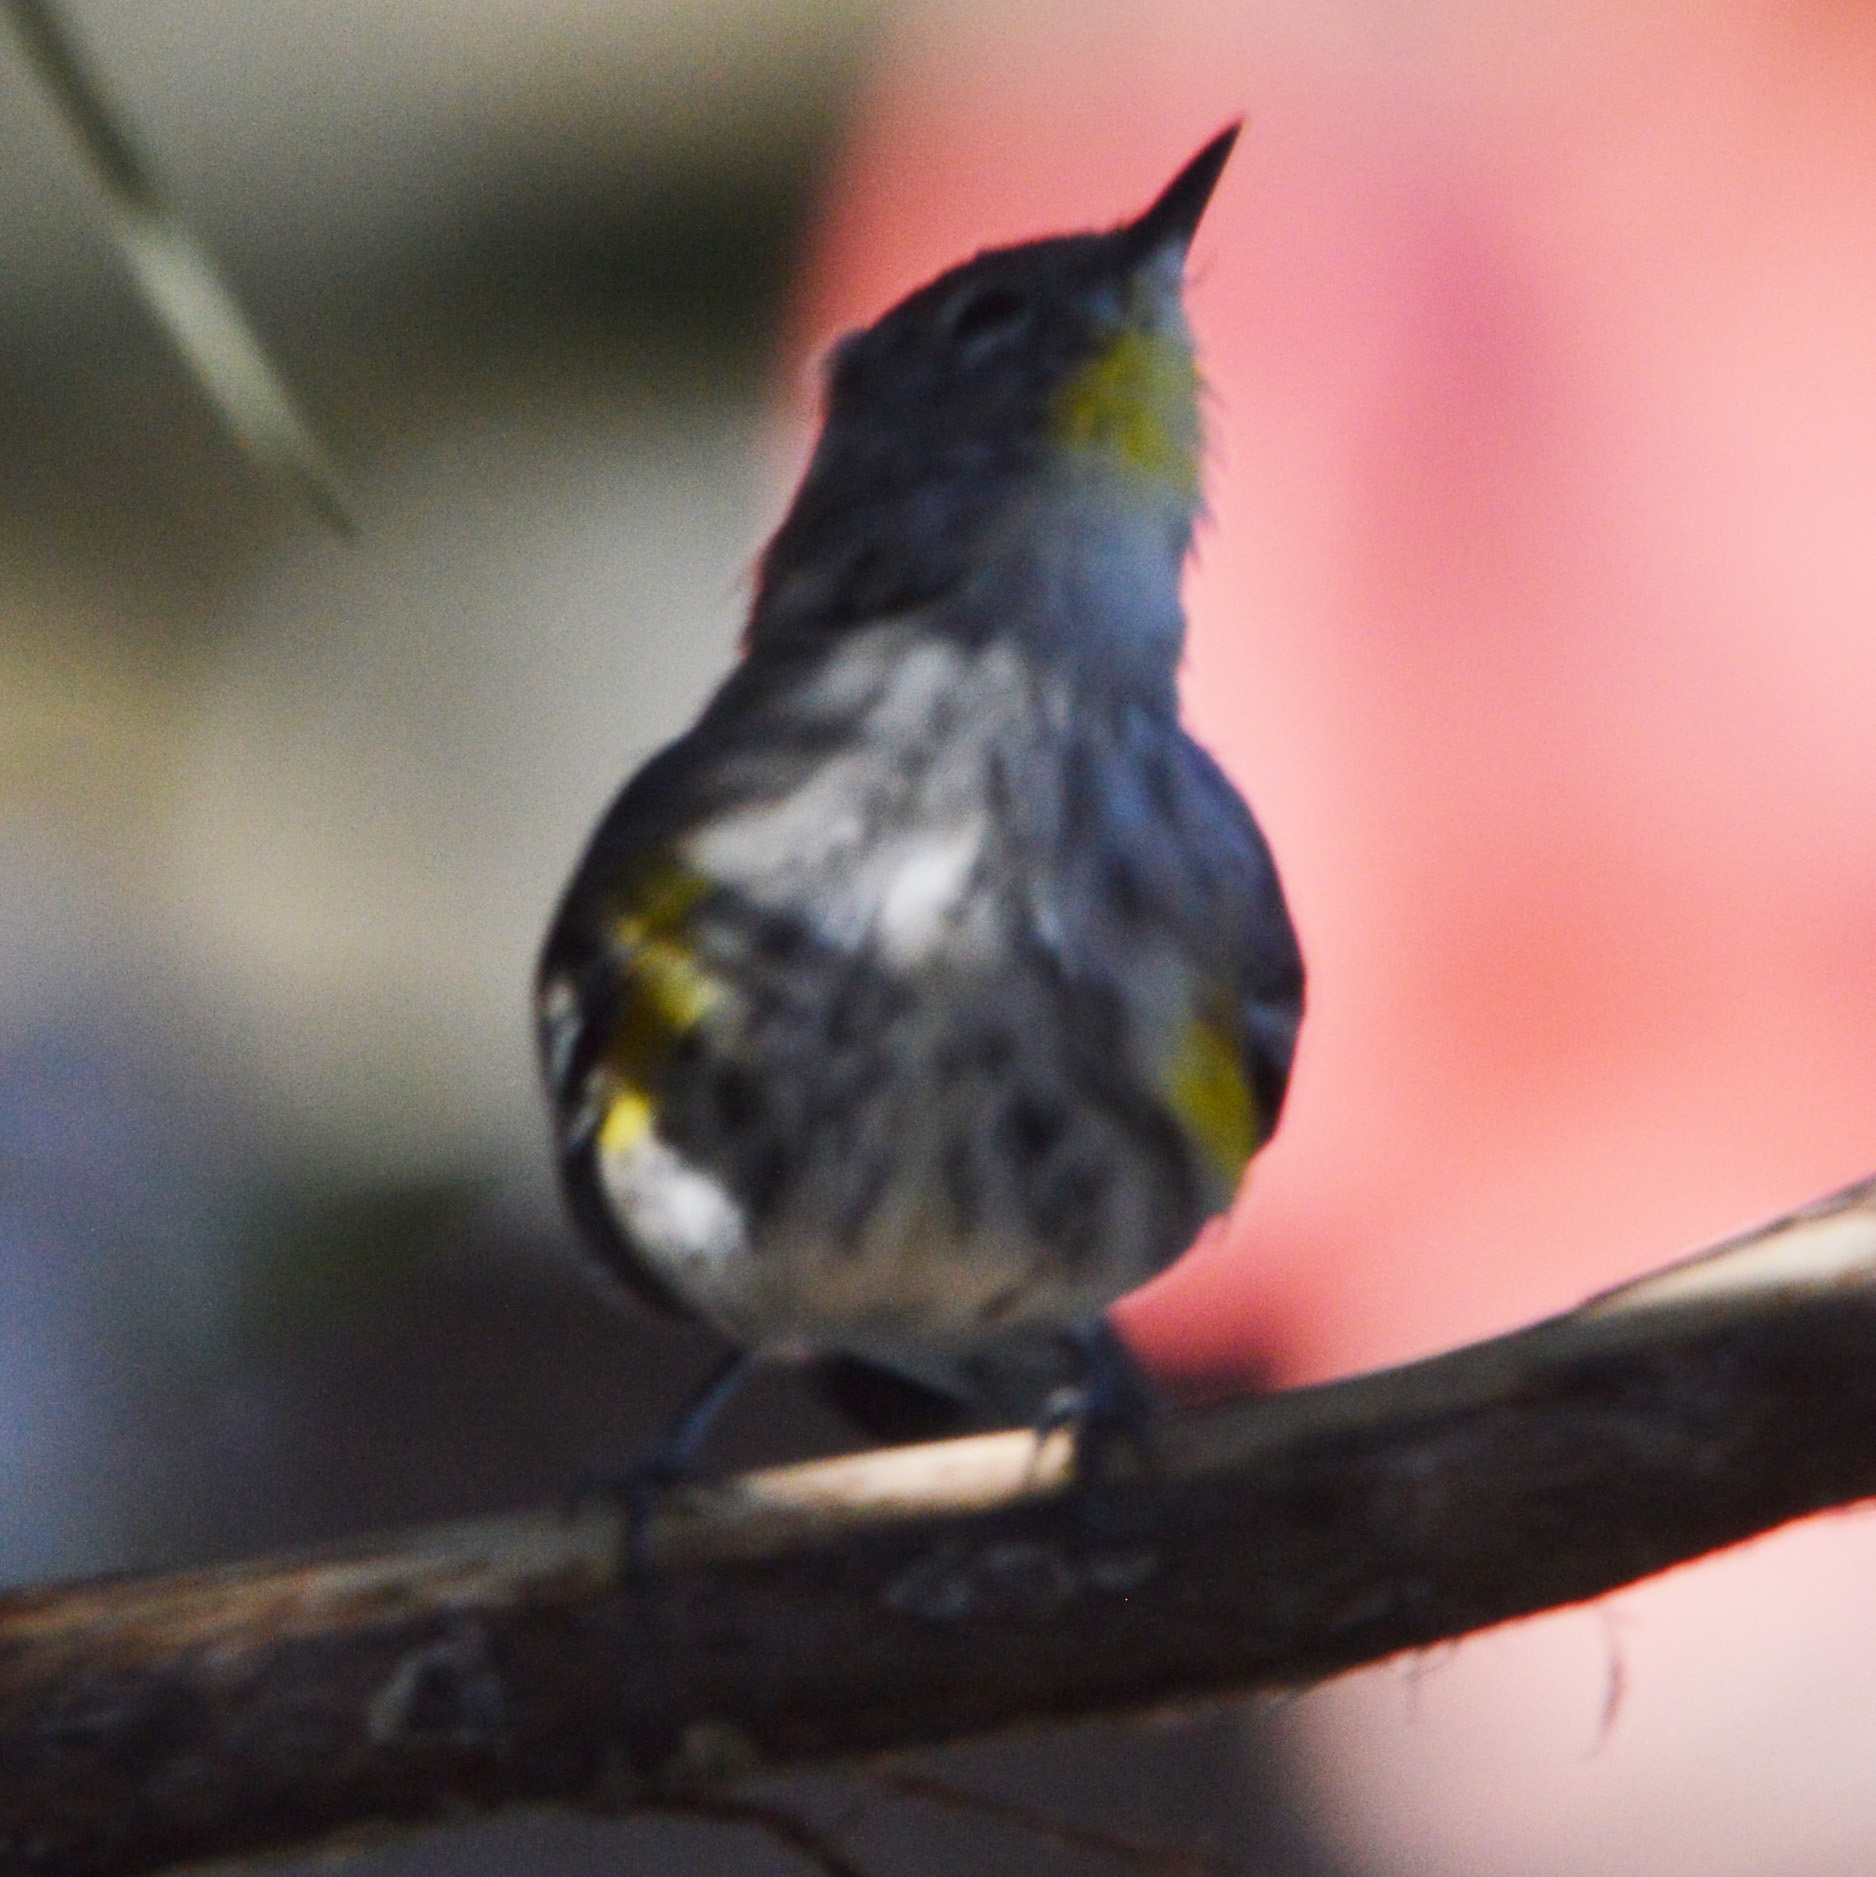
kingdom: Animalia
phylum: Chordata
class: Aves
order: Passeriformes
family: Parulidae
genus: Setophaga
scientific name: Setophaga coronata
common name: Myrtle warbler
